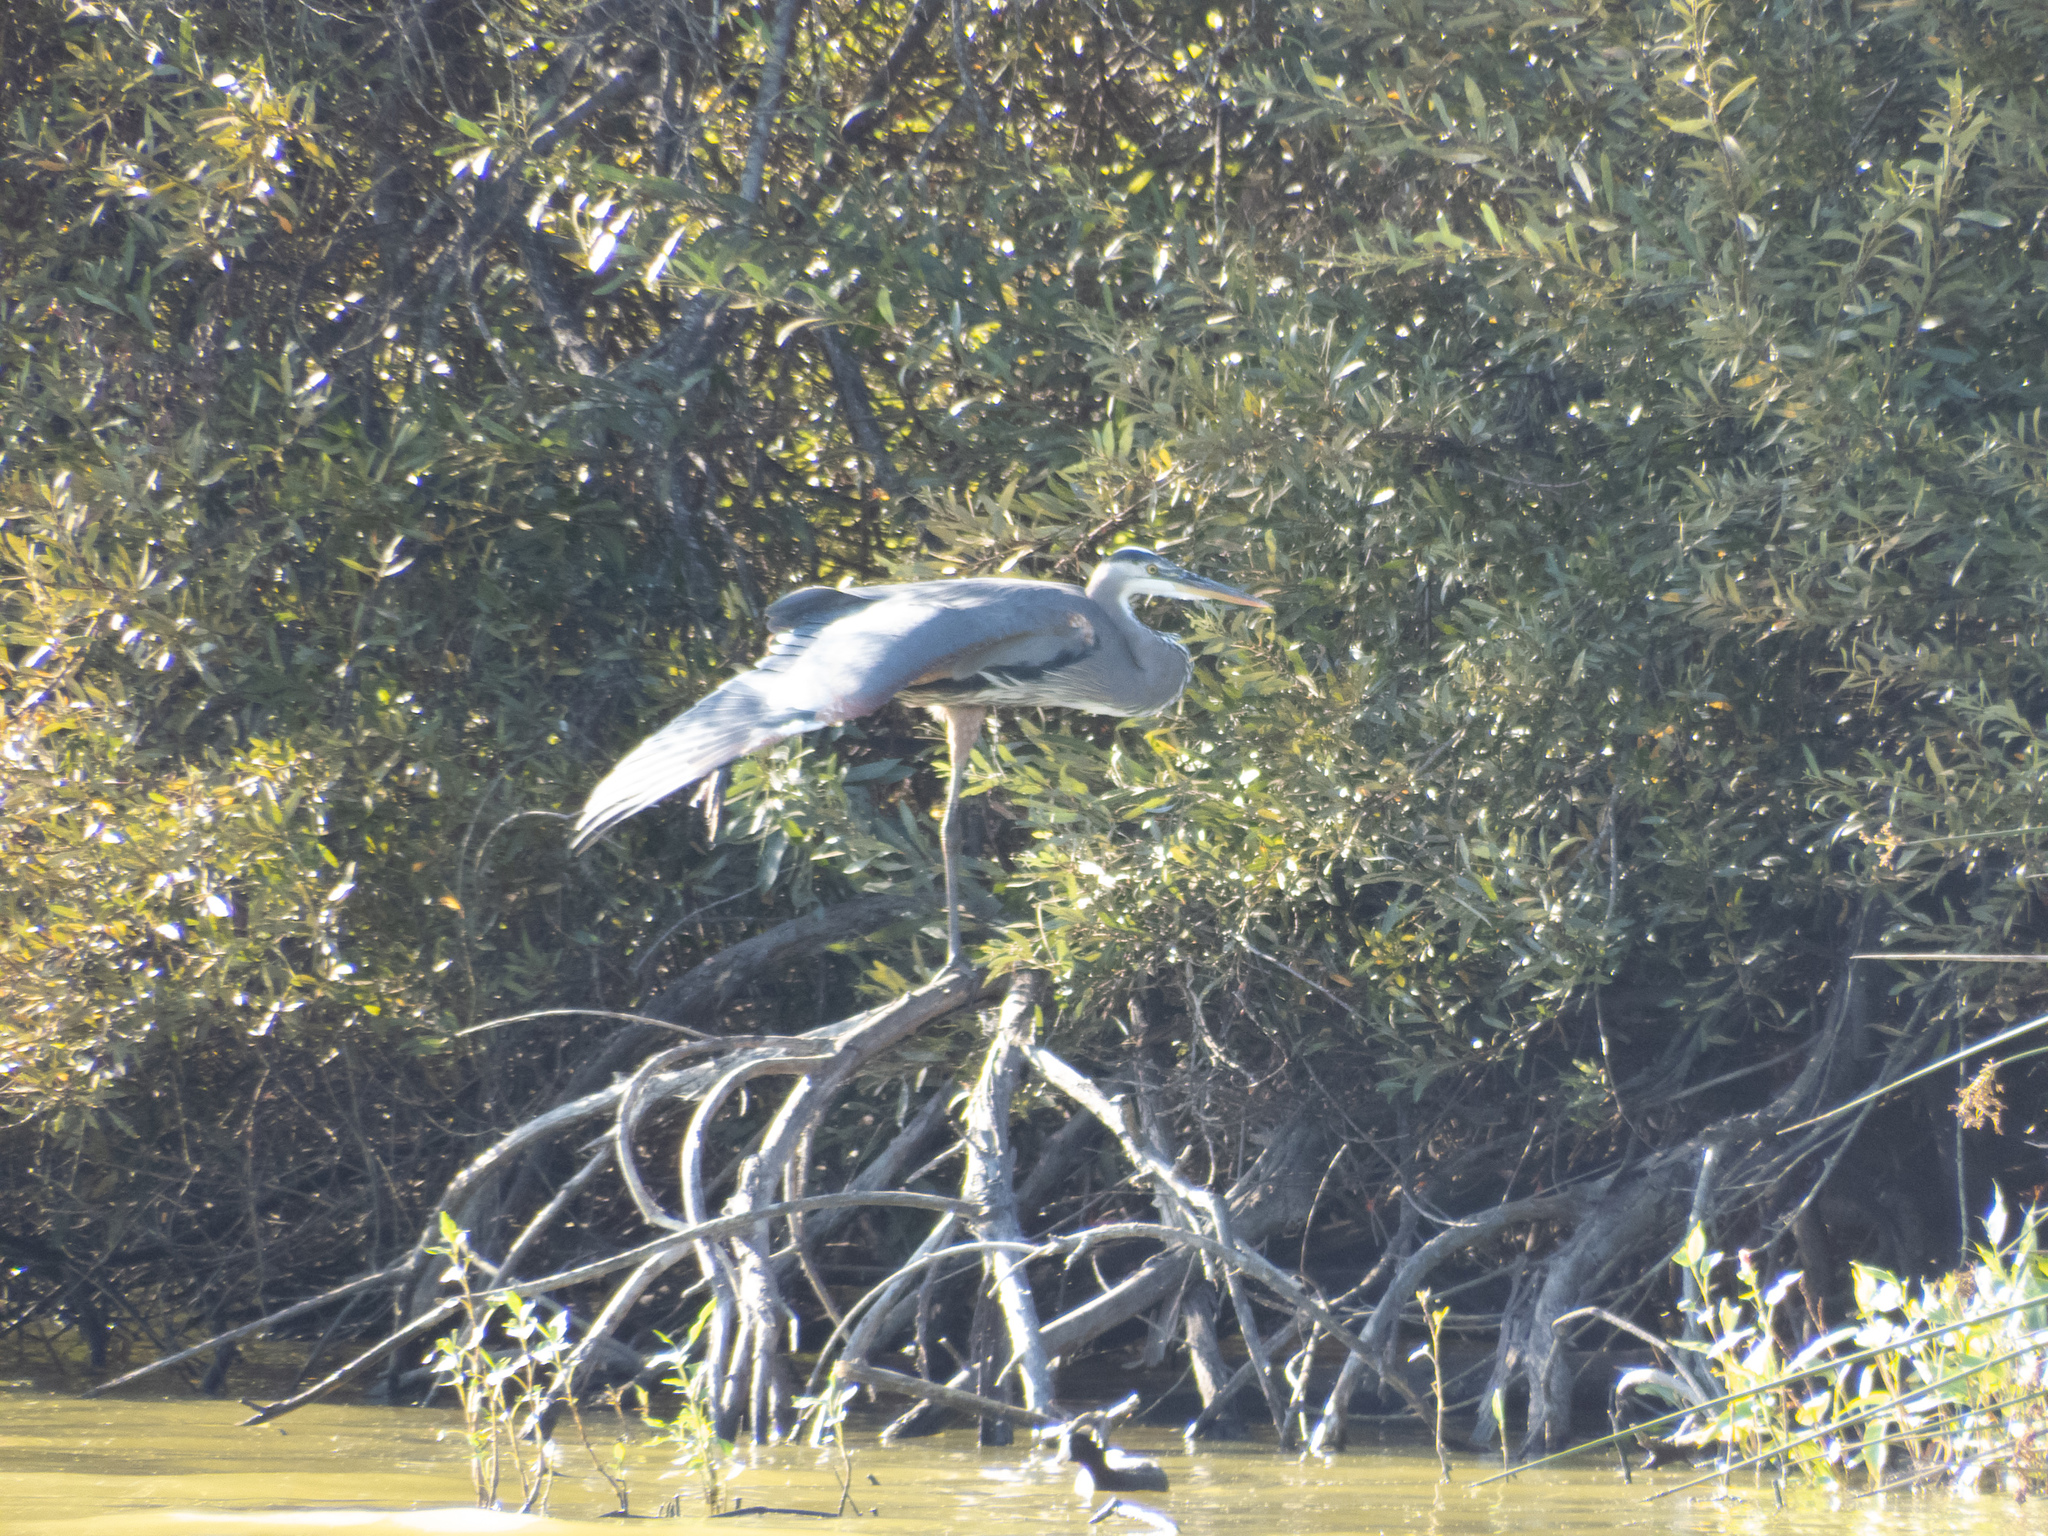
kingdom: Animalia
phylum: Chordata
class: Aves
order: Pelecaniformes
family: Ardeidae
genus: Ardea
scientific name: Ardea herodias
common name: Great blue heron
